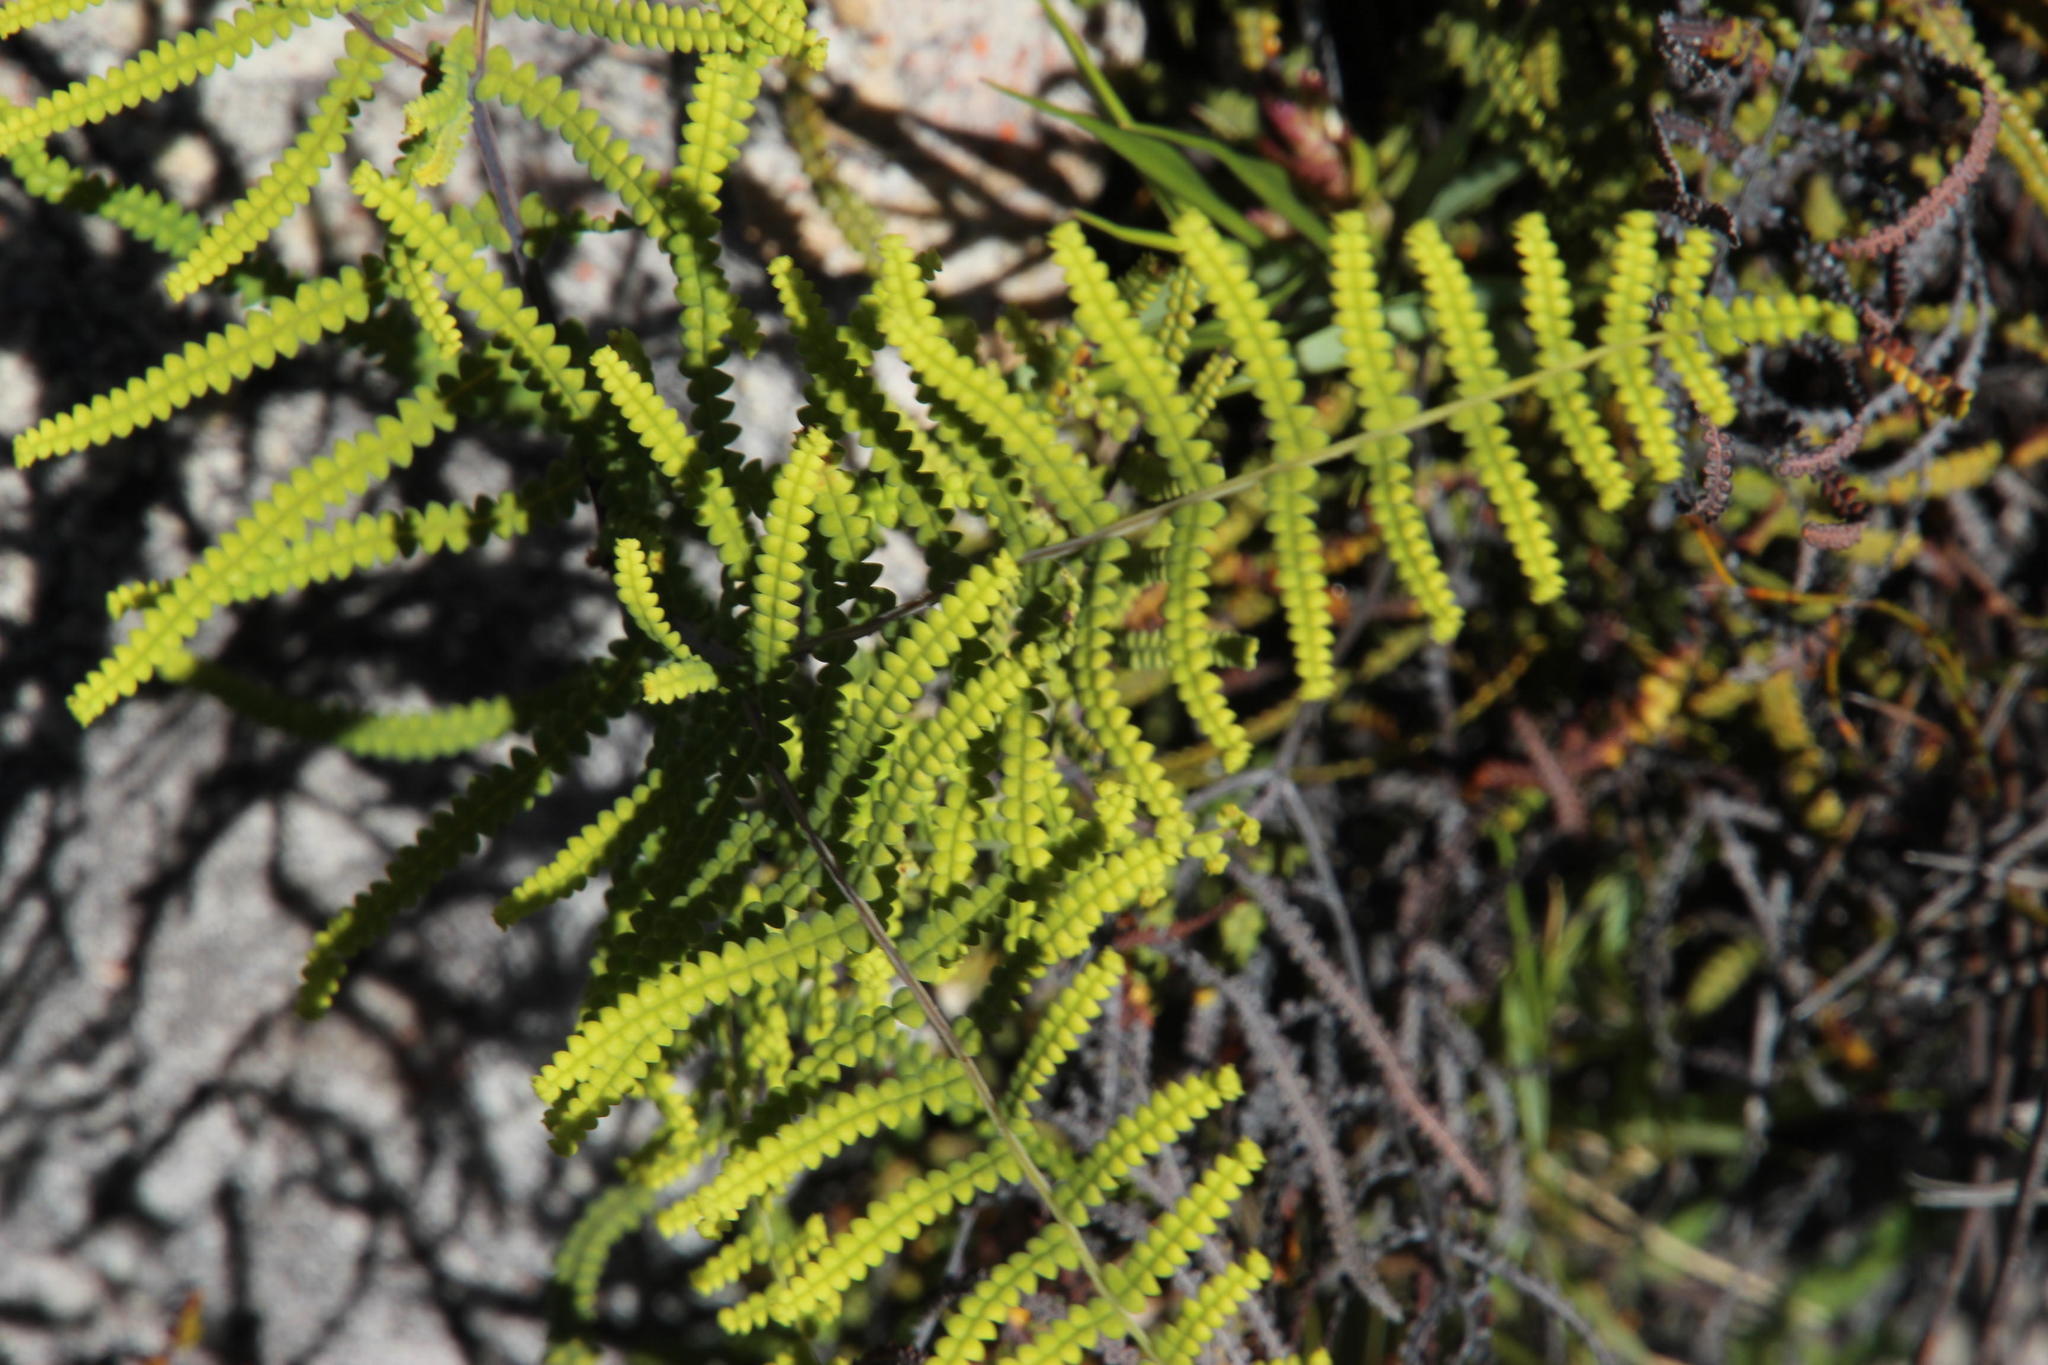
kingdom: Plantae
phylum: Tracheophyta
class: Polypodiopsida
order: Gleicheniales
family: Gleicheniaceae
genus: Gleichenia
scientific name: Gleichenia polypodioides
